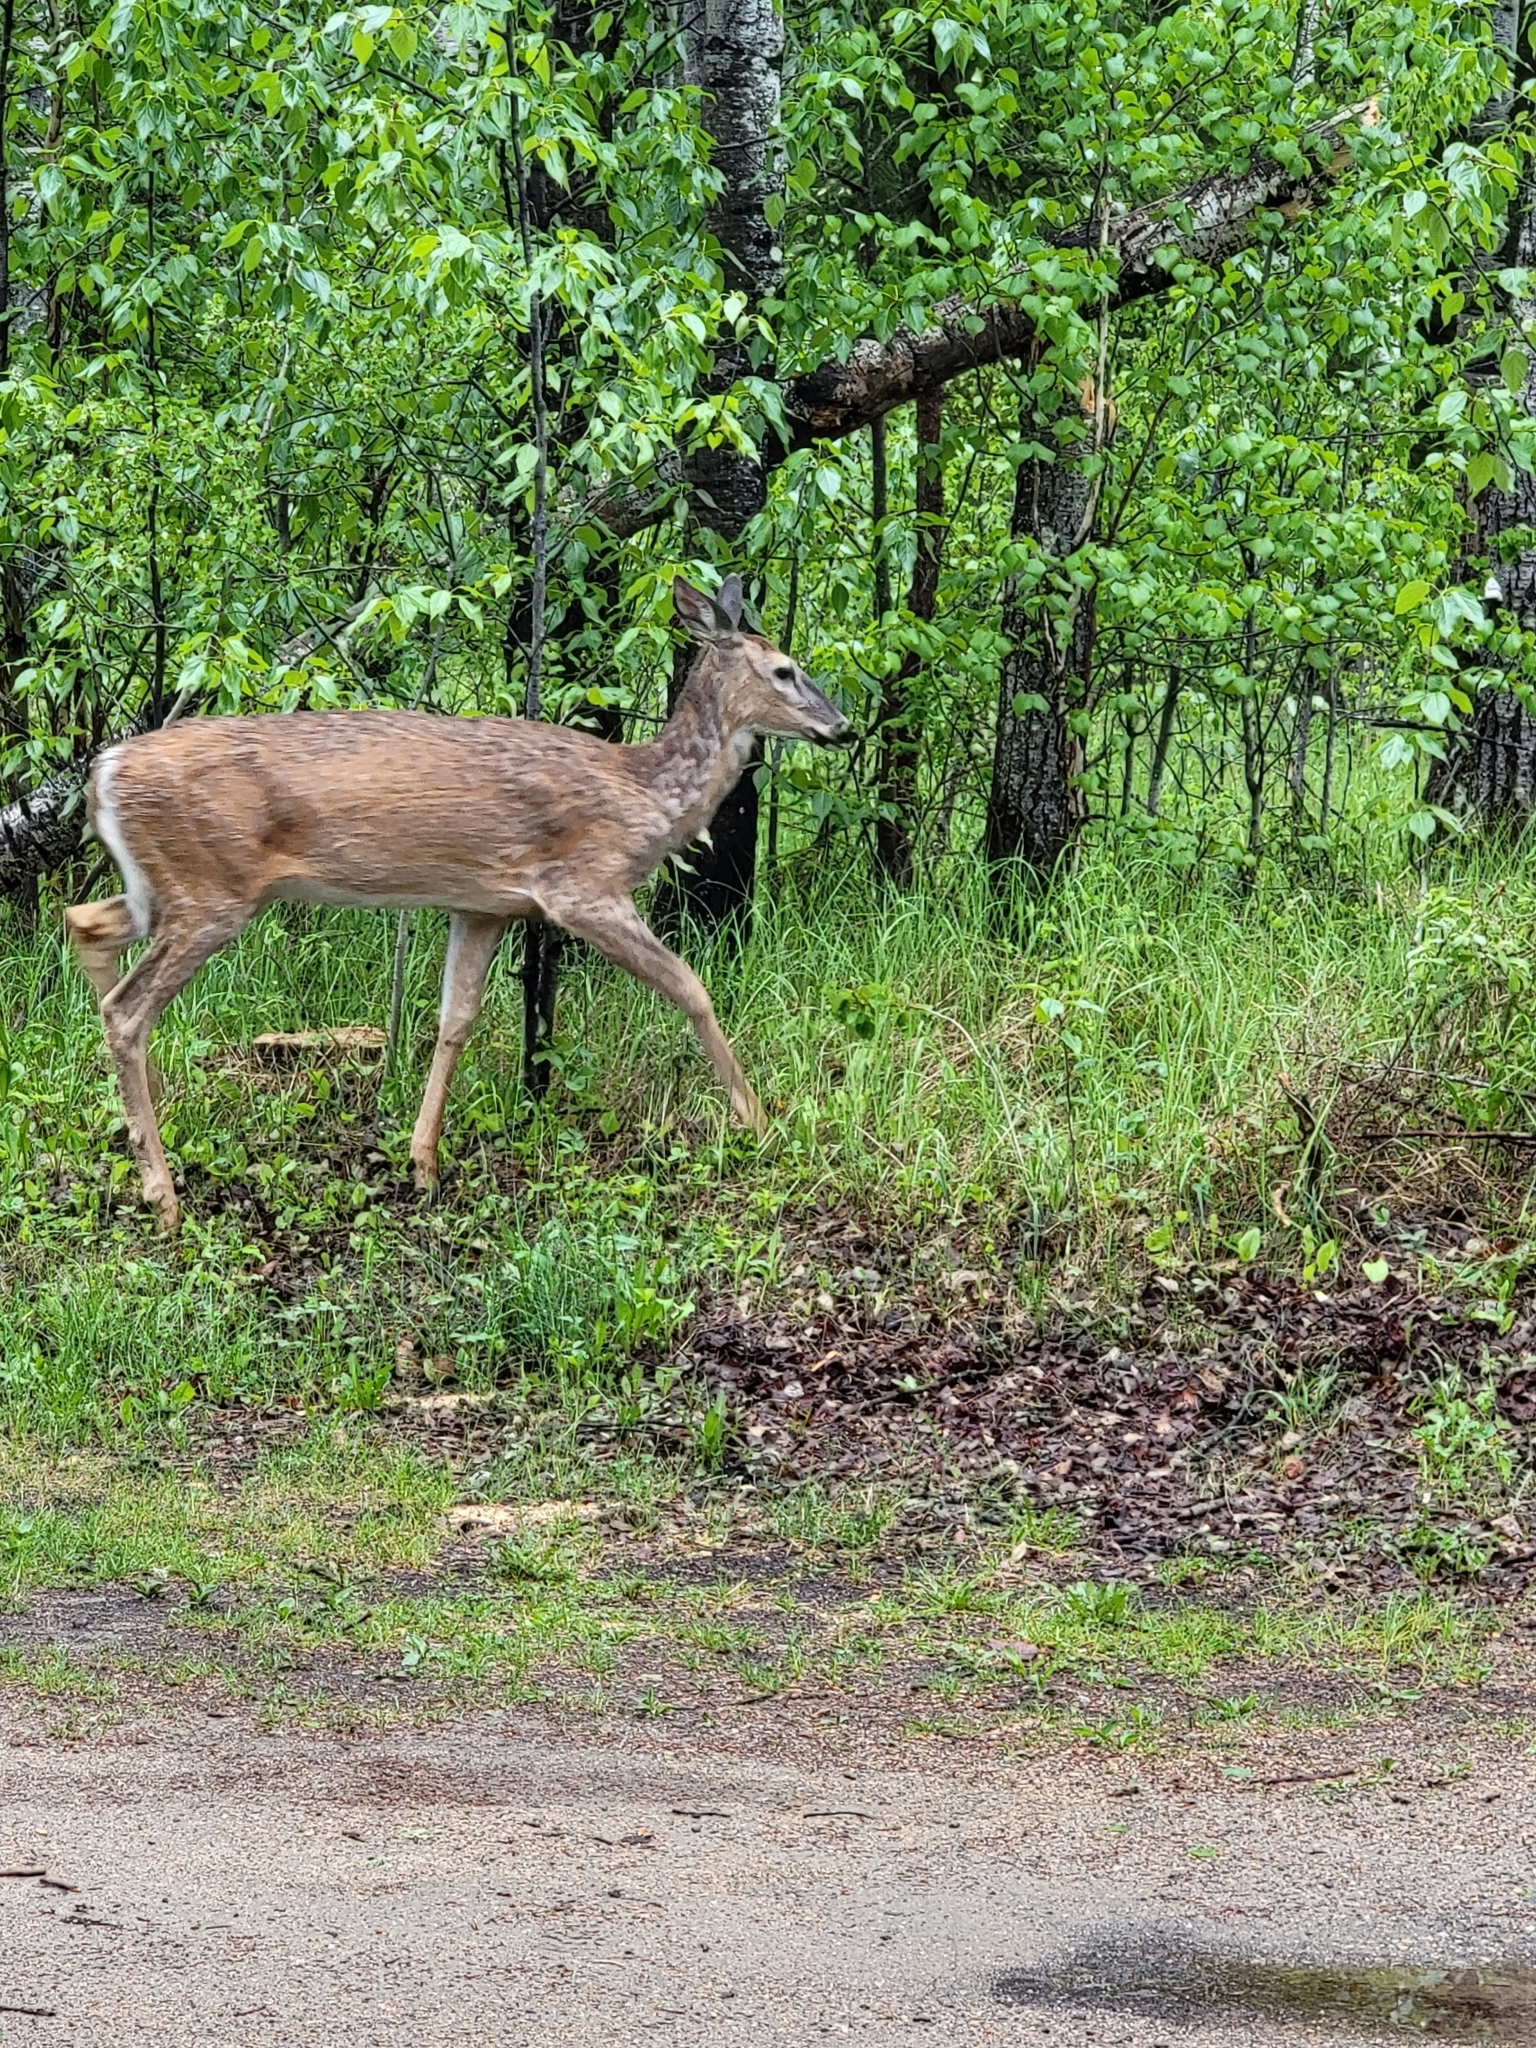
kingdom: Animalia
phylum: Chordata
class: Mammalia
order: Artiodactyla
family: Cervidae
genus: Odocoileus
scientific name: Odocoileus virginianus
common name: White-tailed deer
